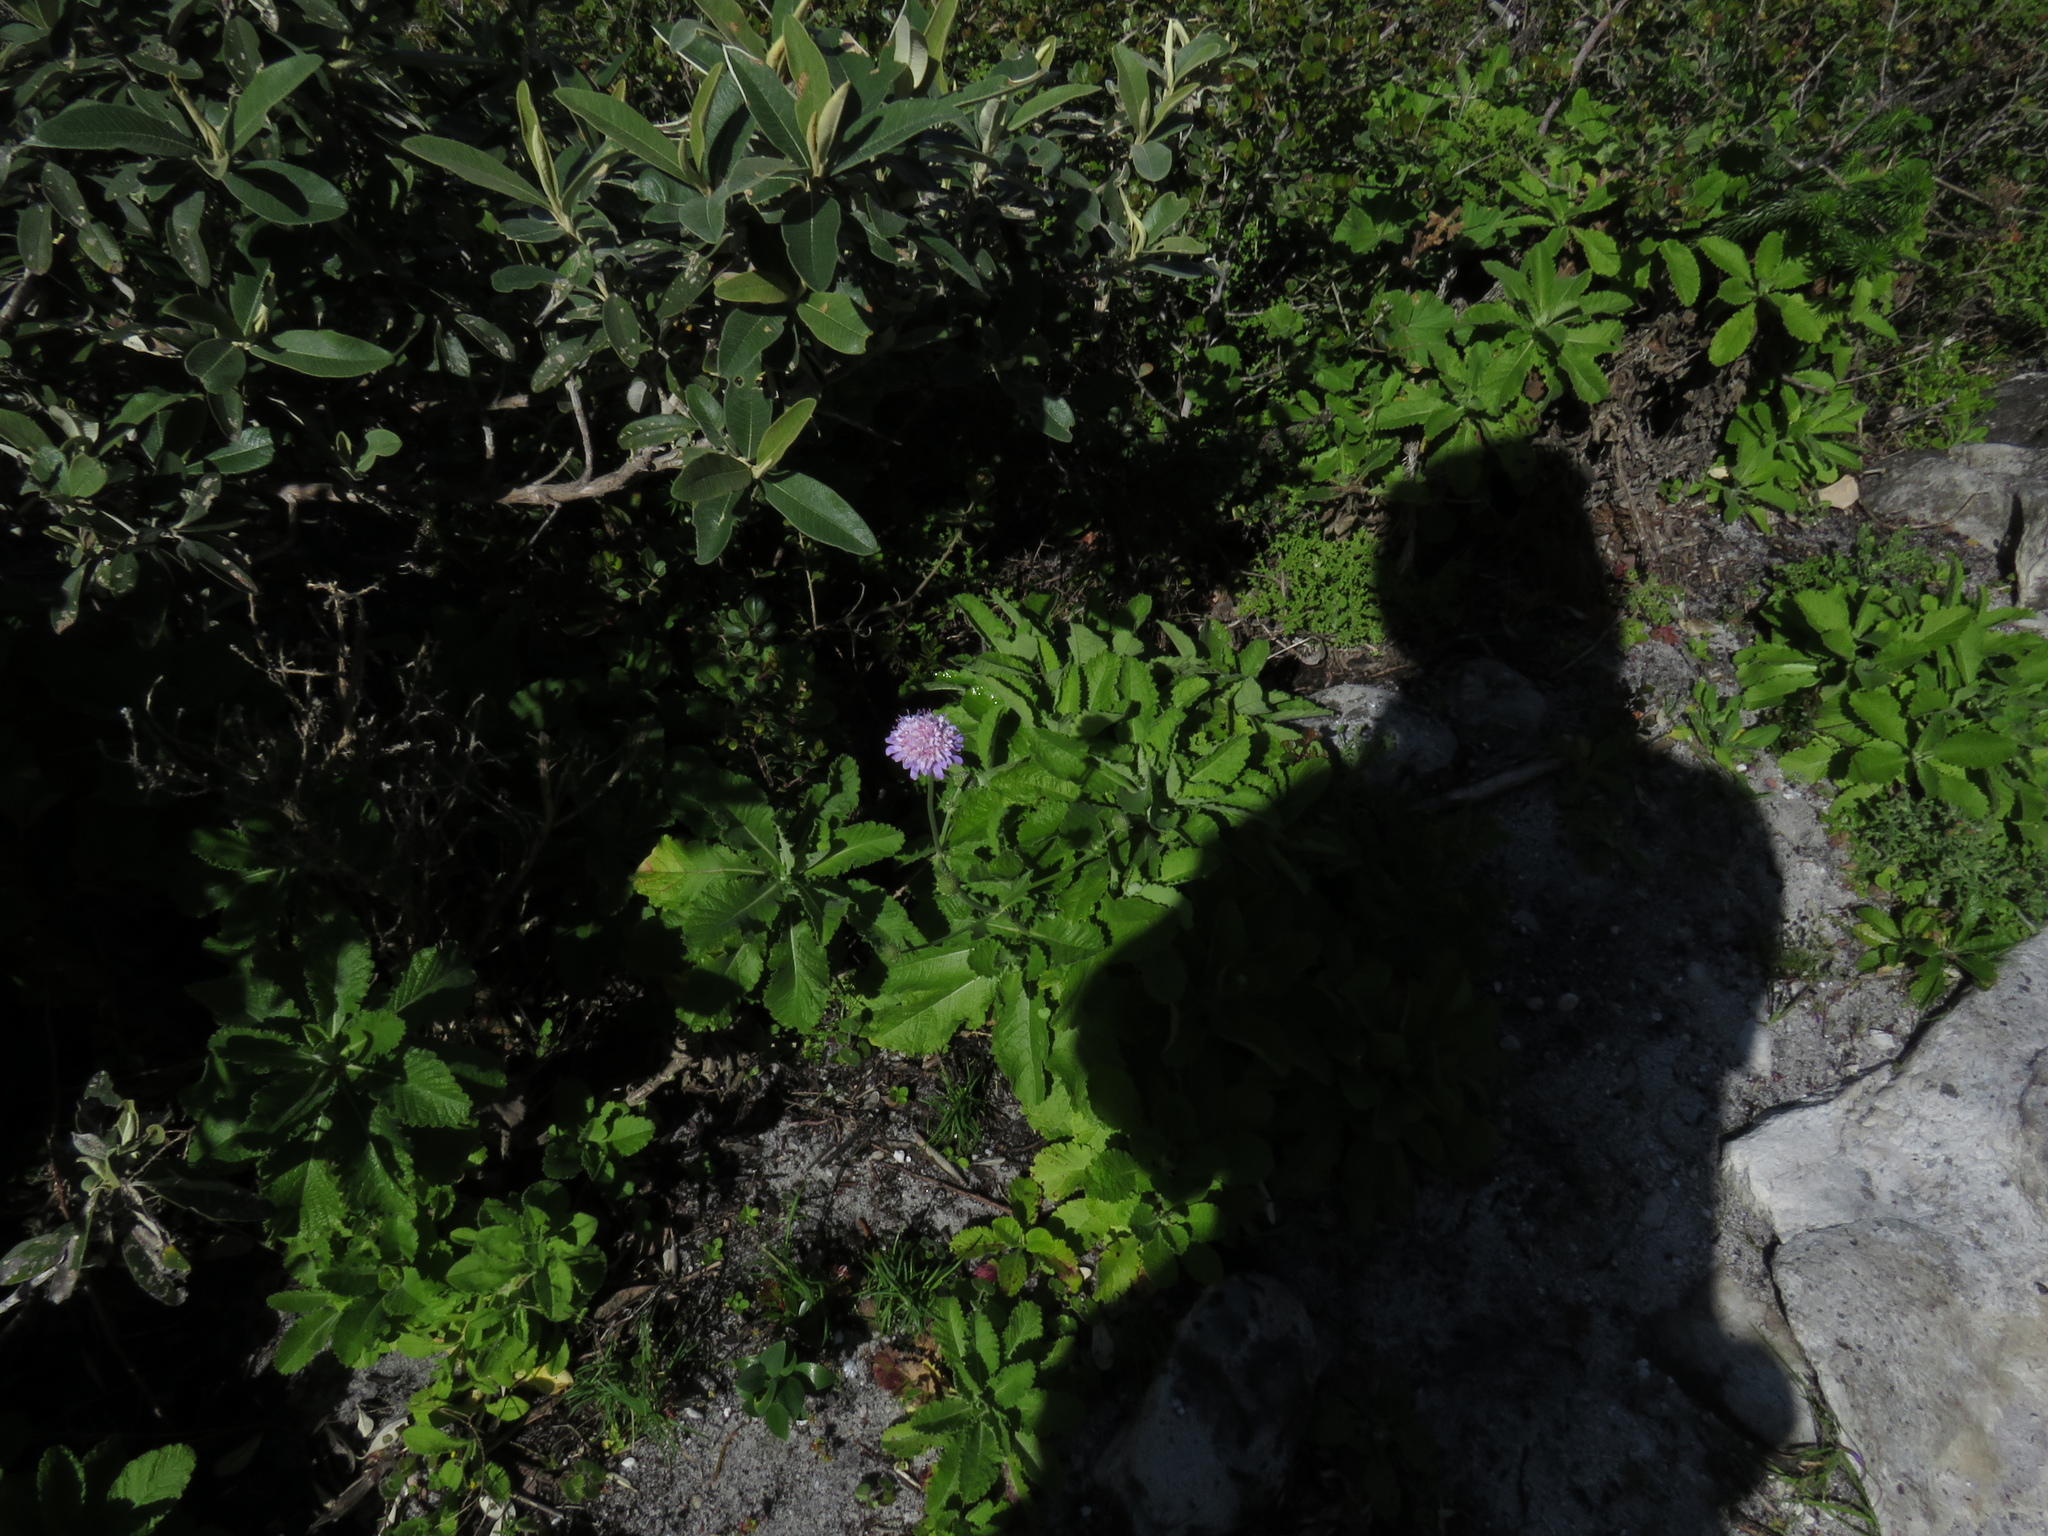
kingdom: Plantae
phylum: Tracheophyta
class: Magnoliopsida
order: Dipsacales
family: Caprifoliaceae
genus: Scabiosa
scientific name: Scabiosa africana
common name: Cape scabious
